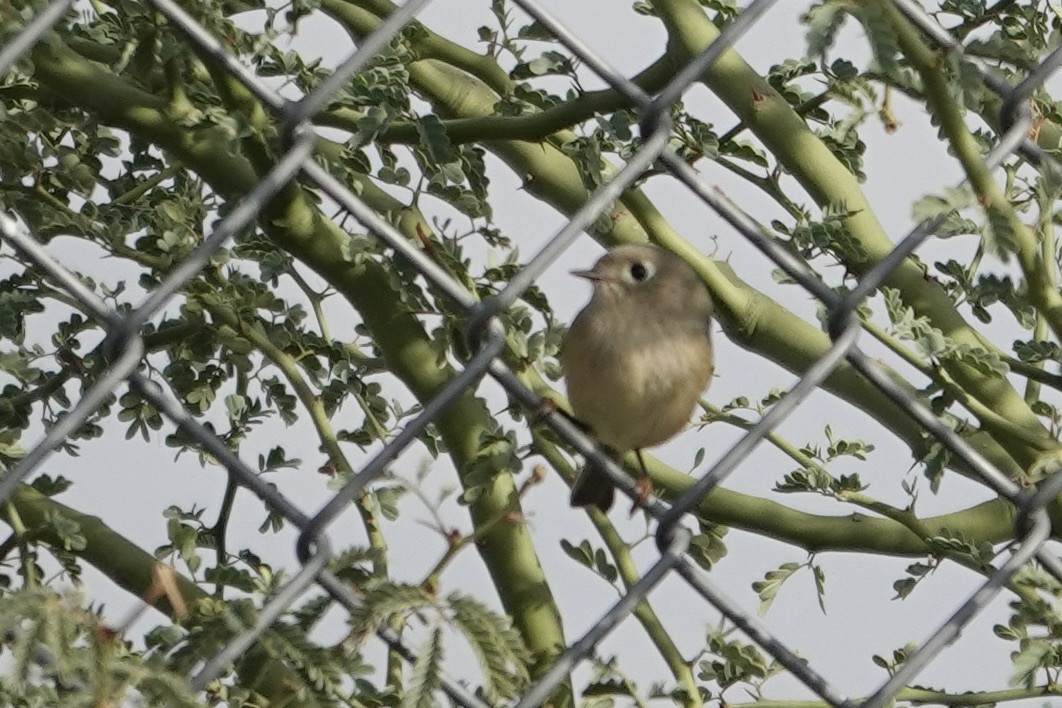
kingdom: Animalia
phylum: Chordata
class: Aves
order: Passeriformes
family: Regulidae
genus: Regulus
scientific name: Regulus calendula
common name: Ruby-crowned kinglet
